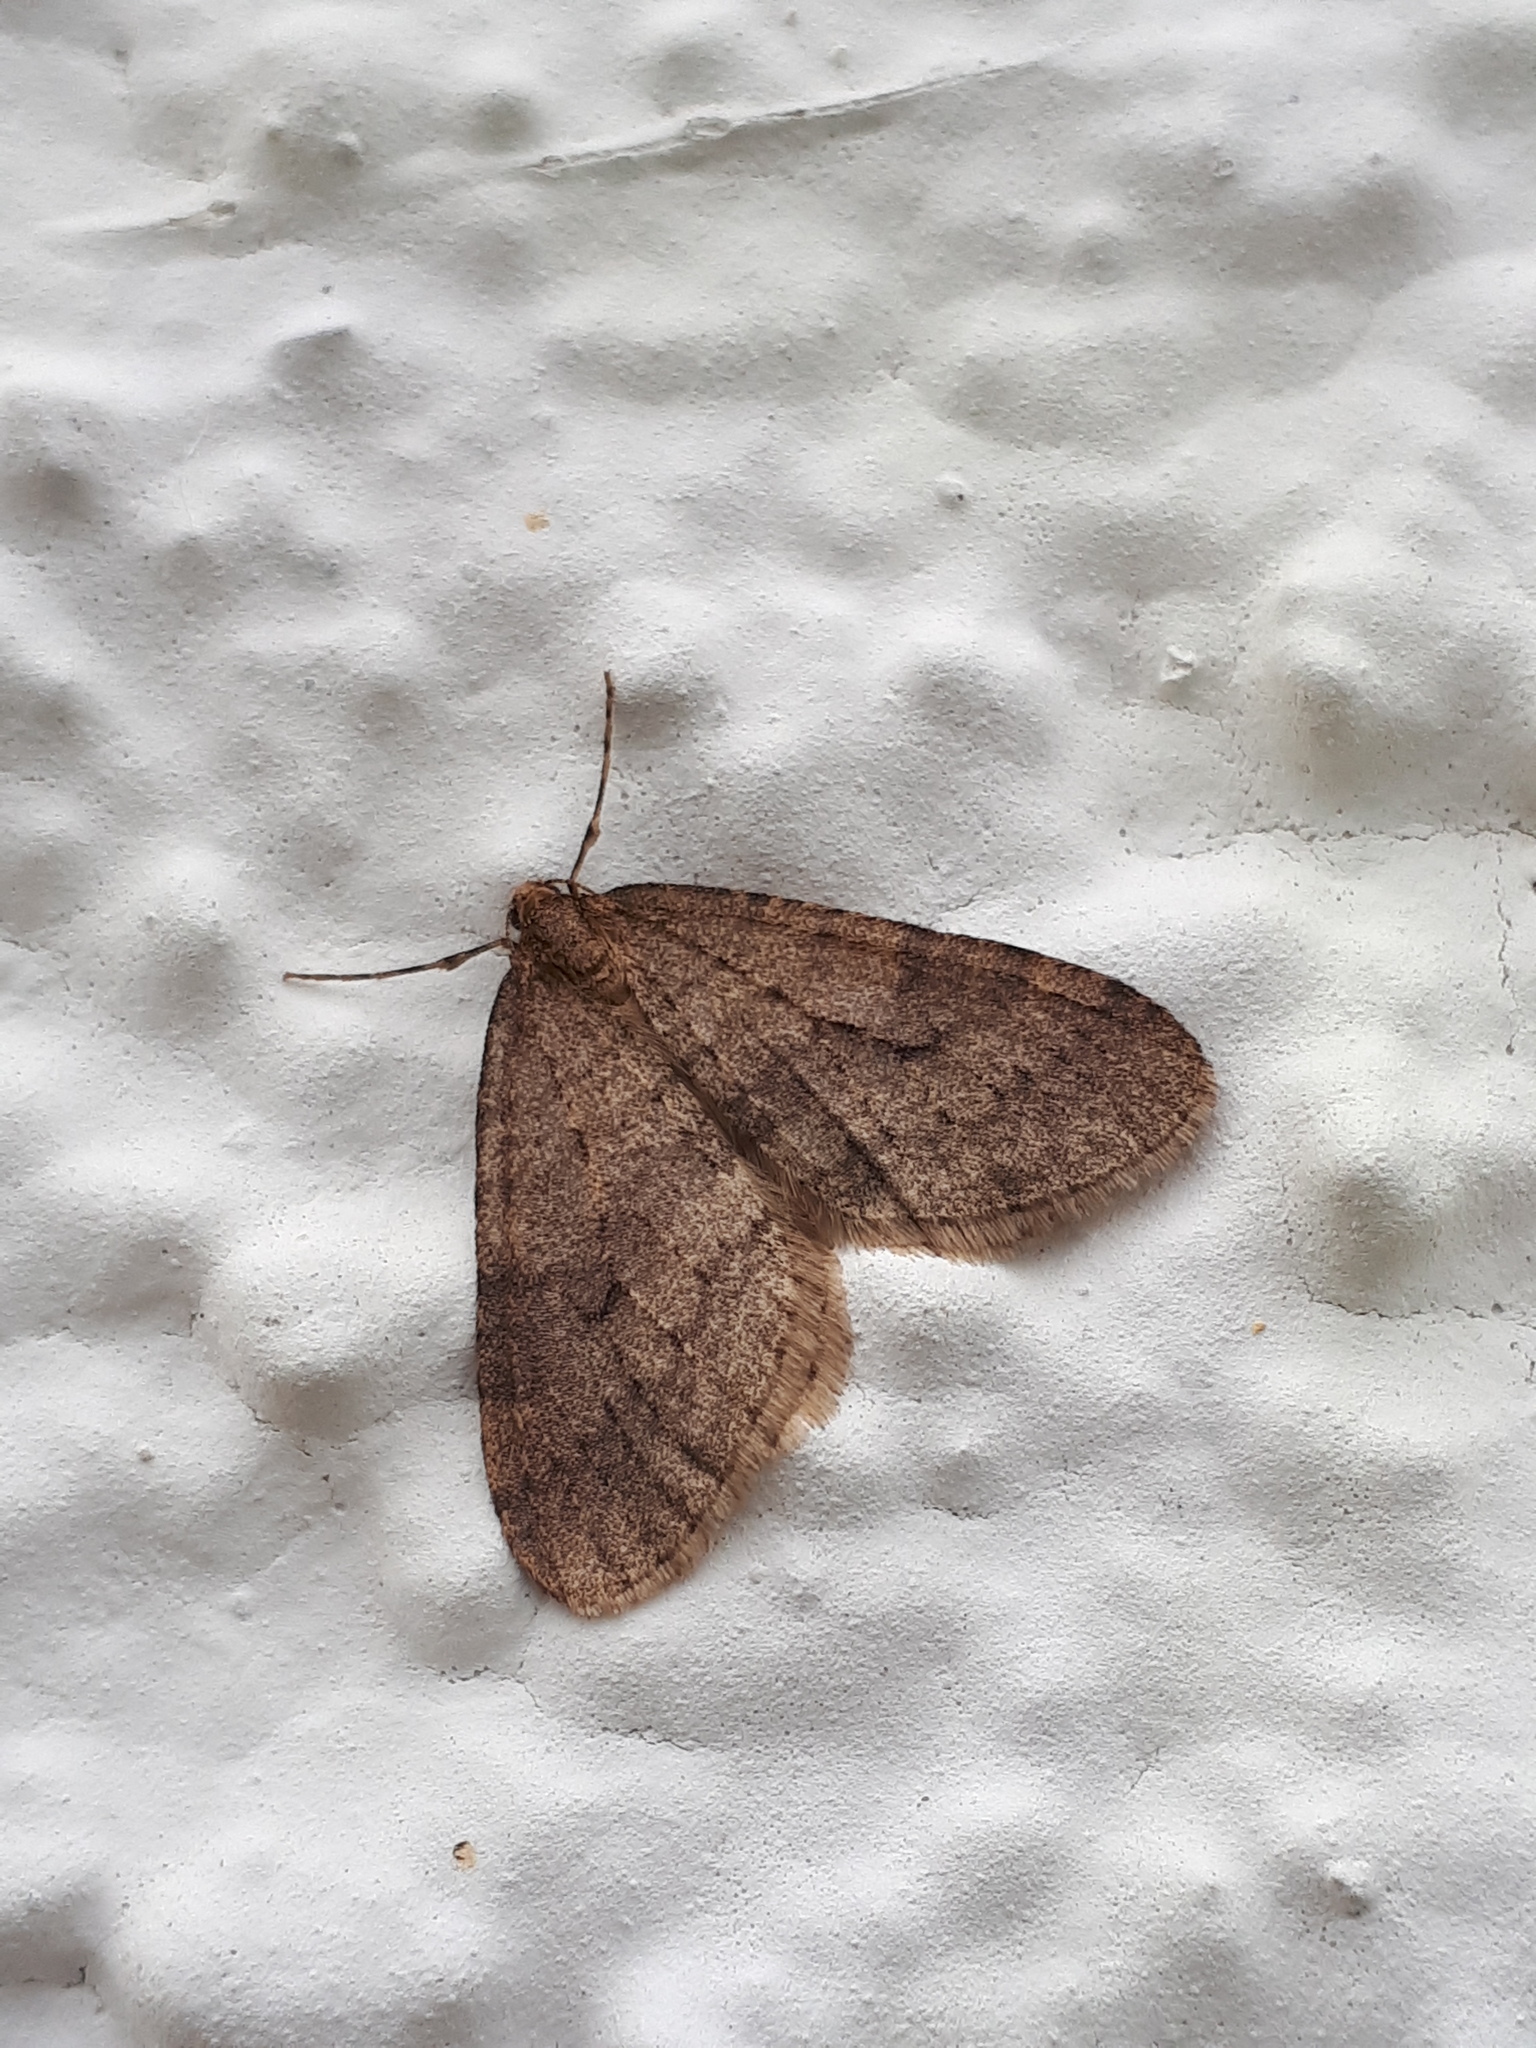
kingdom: Animalia
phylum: Arthropoda
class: Insecta
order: Lepidoptera
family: Geometridae
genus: Operophtera
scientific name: Operophtera brumata
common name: Winter moth
